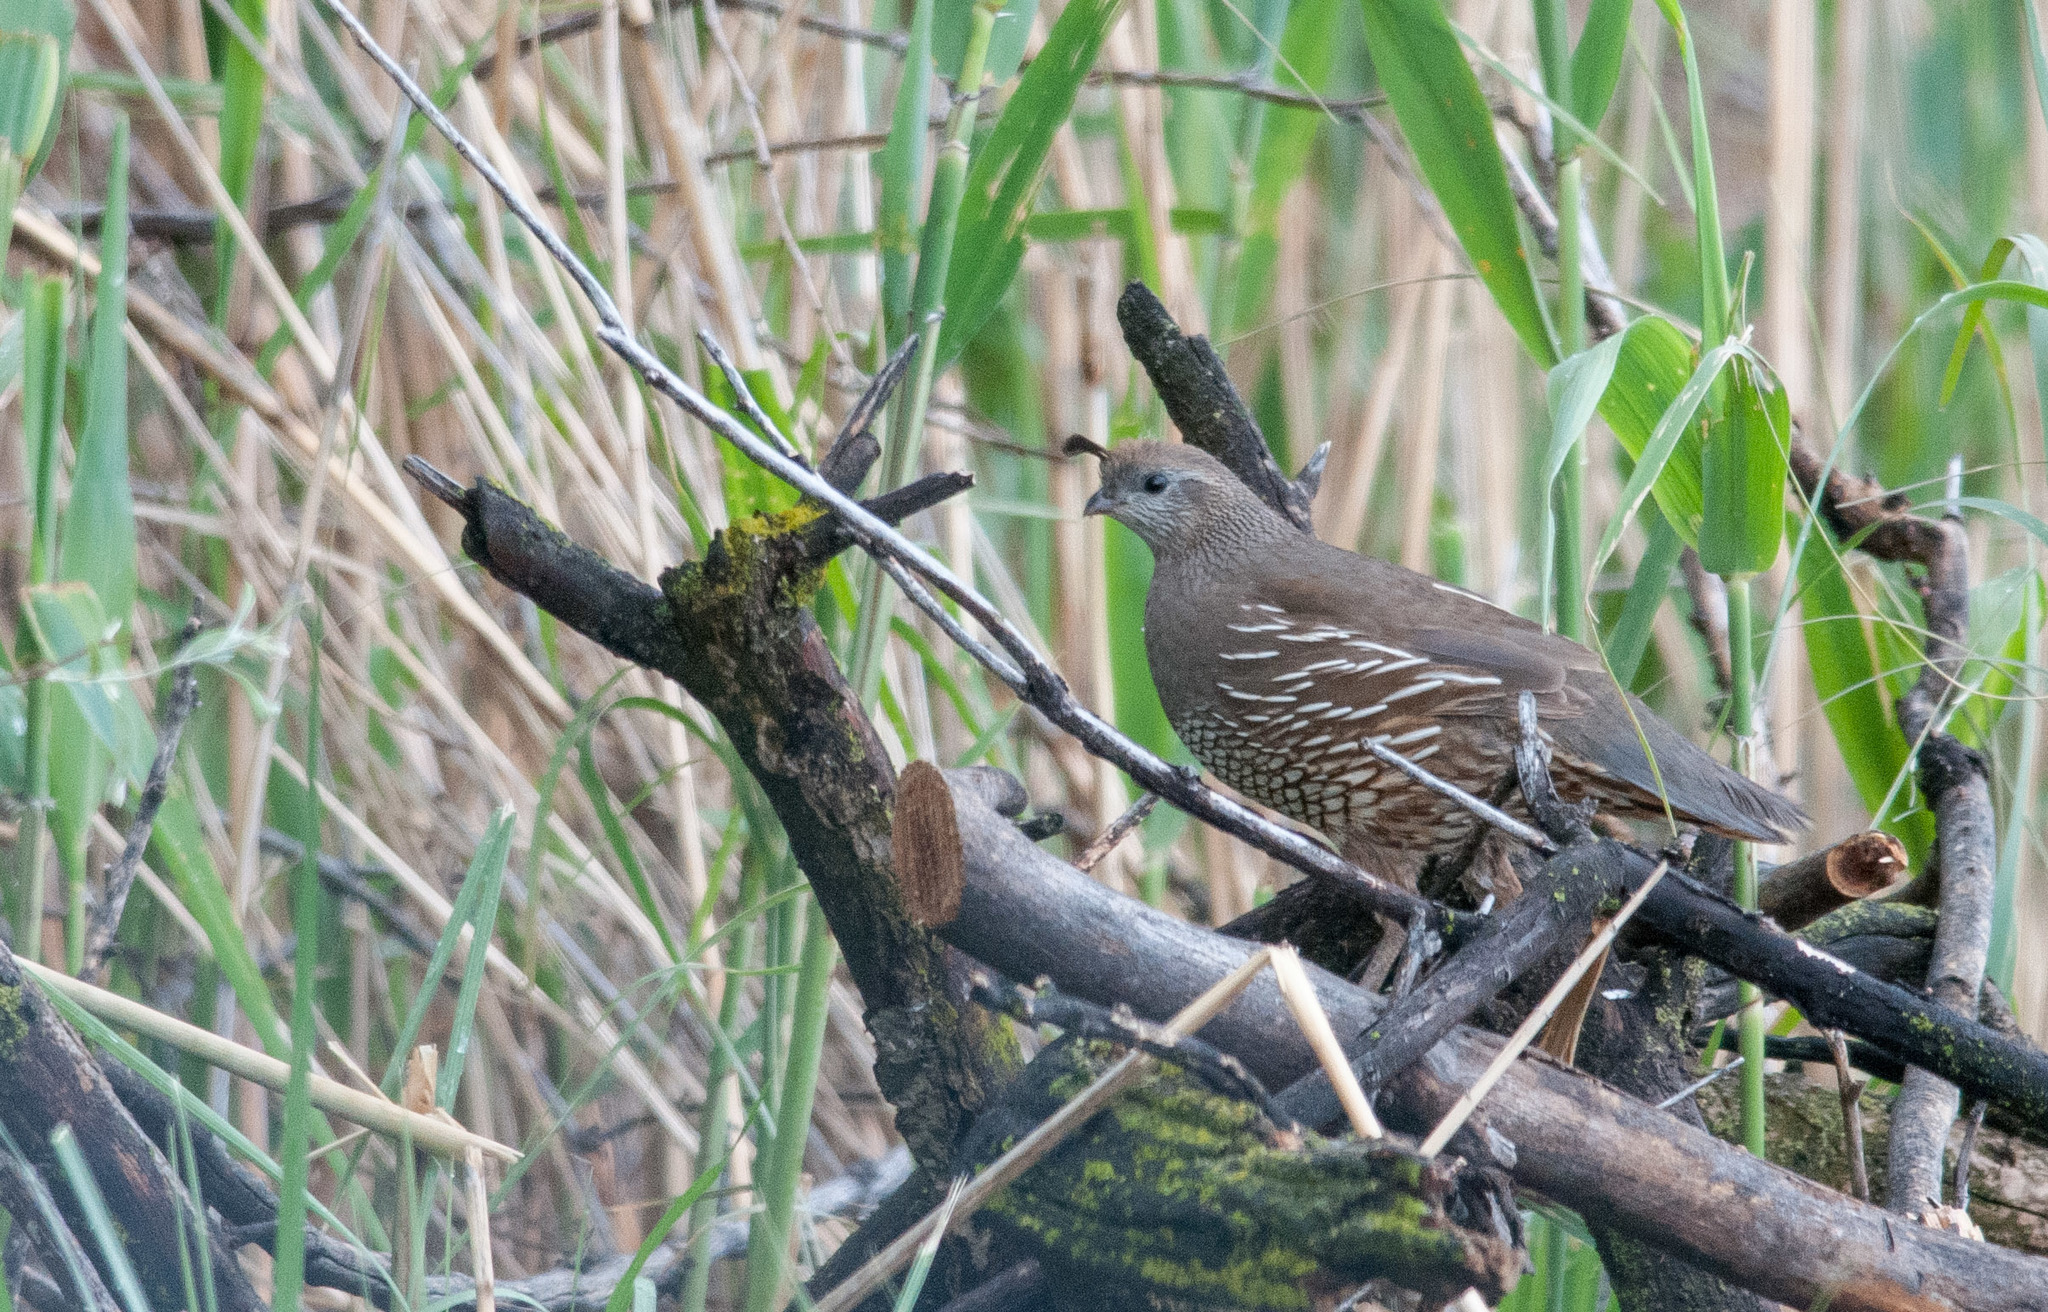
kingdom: Animalia
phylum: Chordata
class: Aves
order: Galliformes
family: Odontophoridae
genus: Callipepla
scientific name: Callipepla californica
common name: California quail
